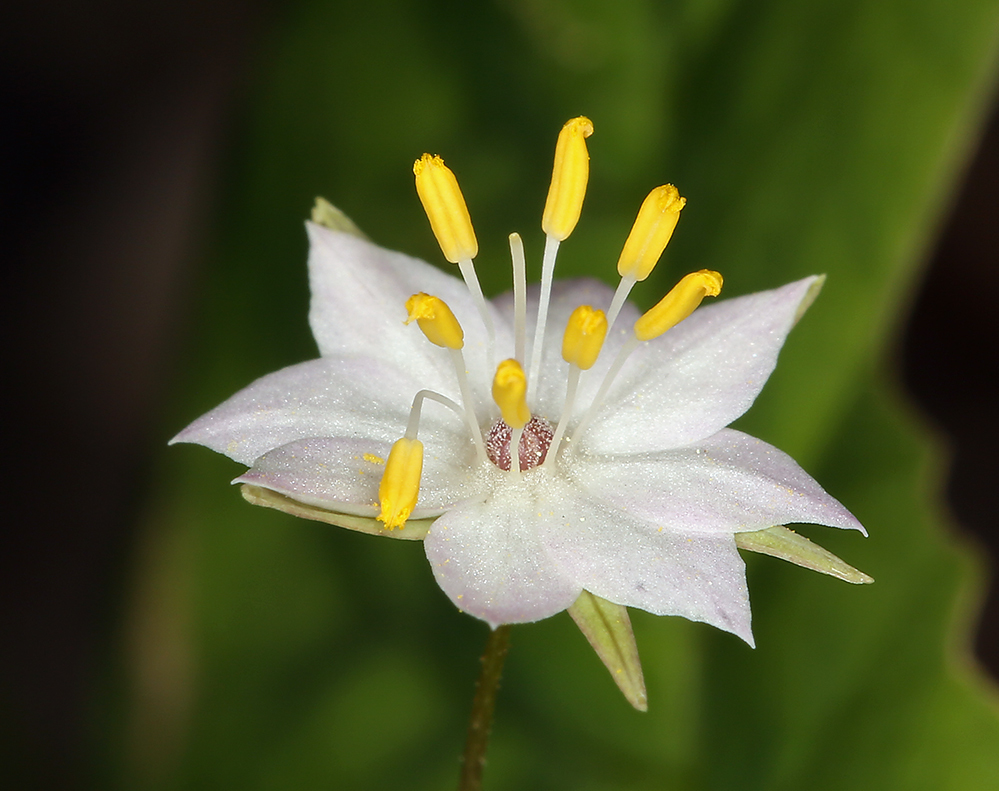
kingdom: Plantae
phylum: Tracheophyta
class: Magnoliopsida
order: Ericales
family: Primulaceae
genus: Lysimachia
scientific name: Lysimachia latifolia
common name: Pacific starflower
